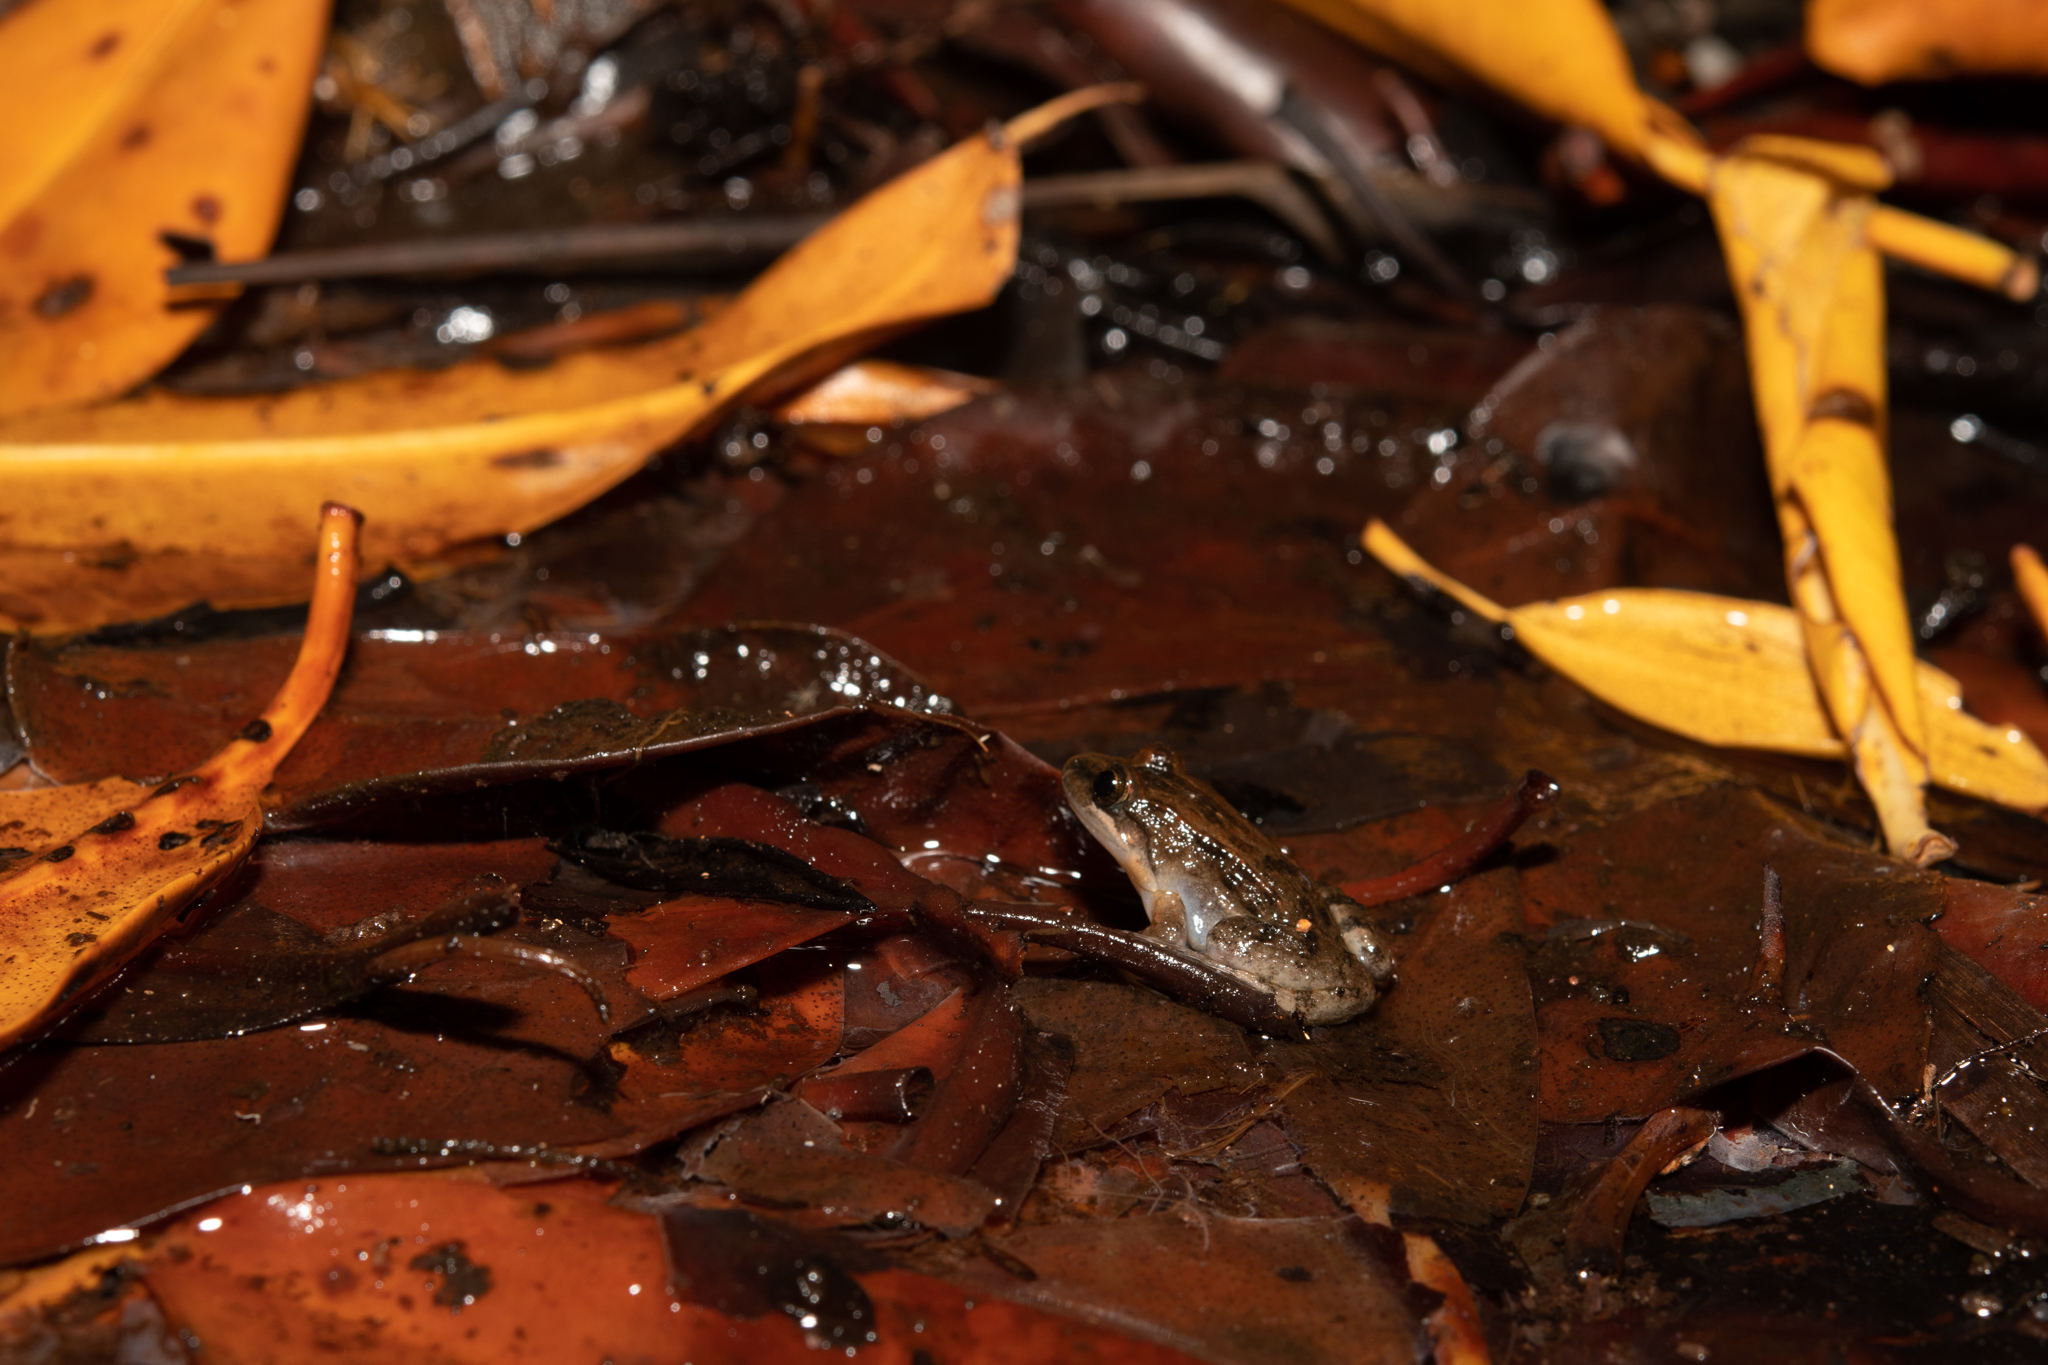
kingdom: Animalia
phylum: Chordata
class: Amphibia
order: Anura
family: Leptodactylidae
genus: Leptodactylus
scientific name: Leptodactylus melanonotus
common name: Fringe-toed foamfrog
